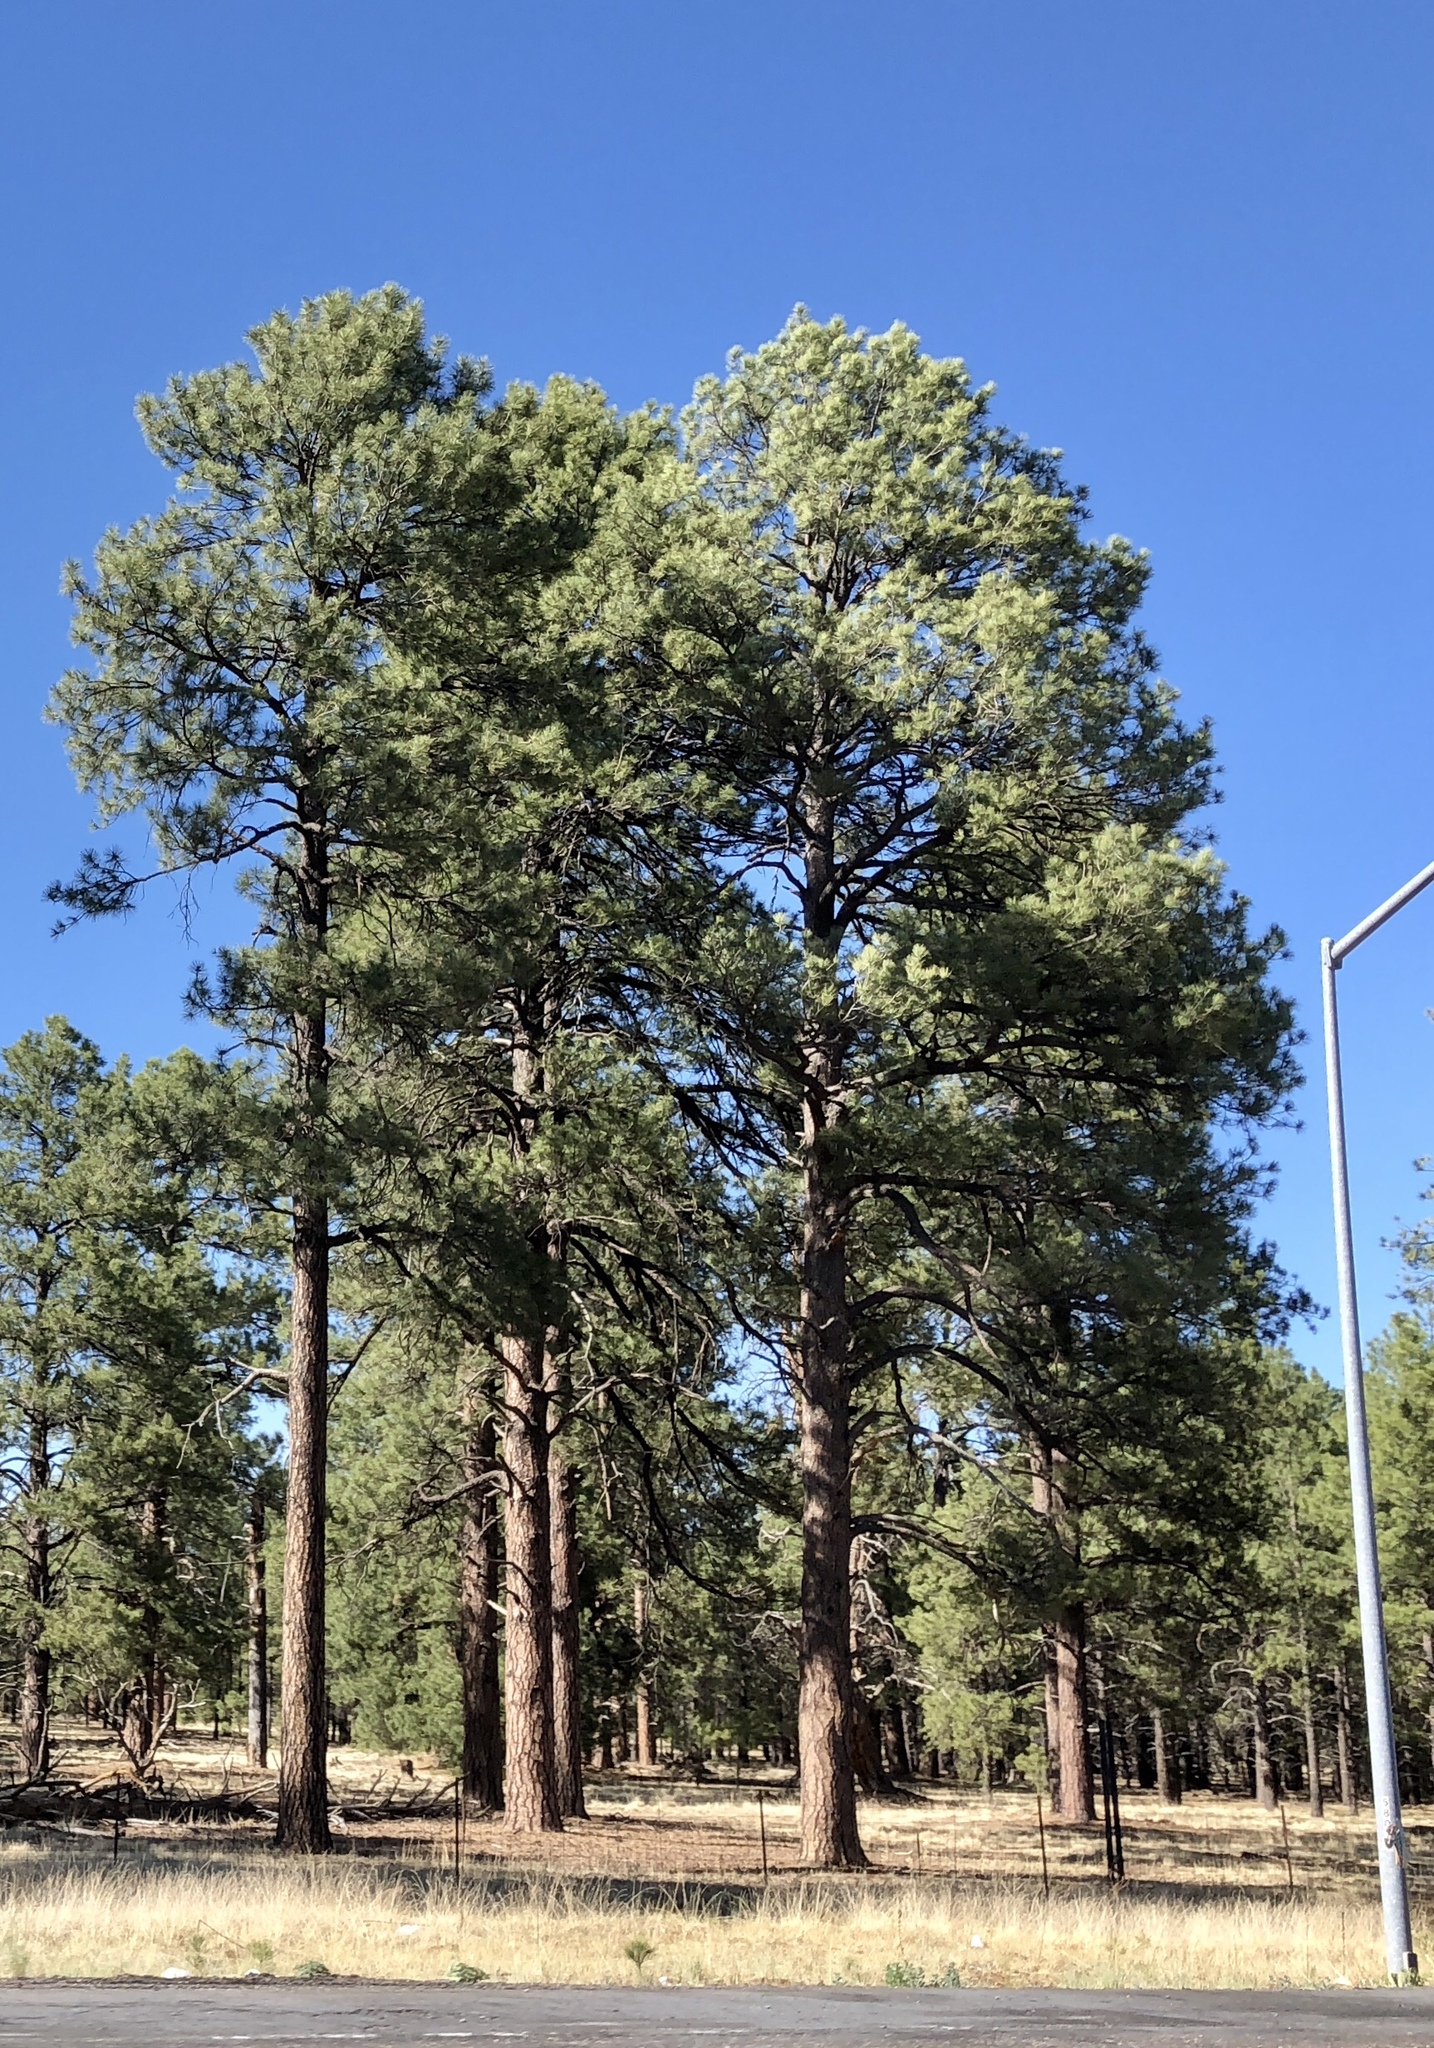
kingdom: Plantae
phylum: Tracheophyta
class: Pinopsida
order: Pinales
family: Pinaceae
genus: Pinus
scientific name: Pinus ponderosa
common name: Western yellow-pine
